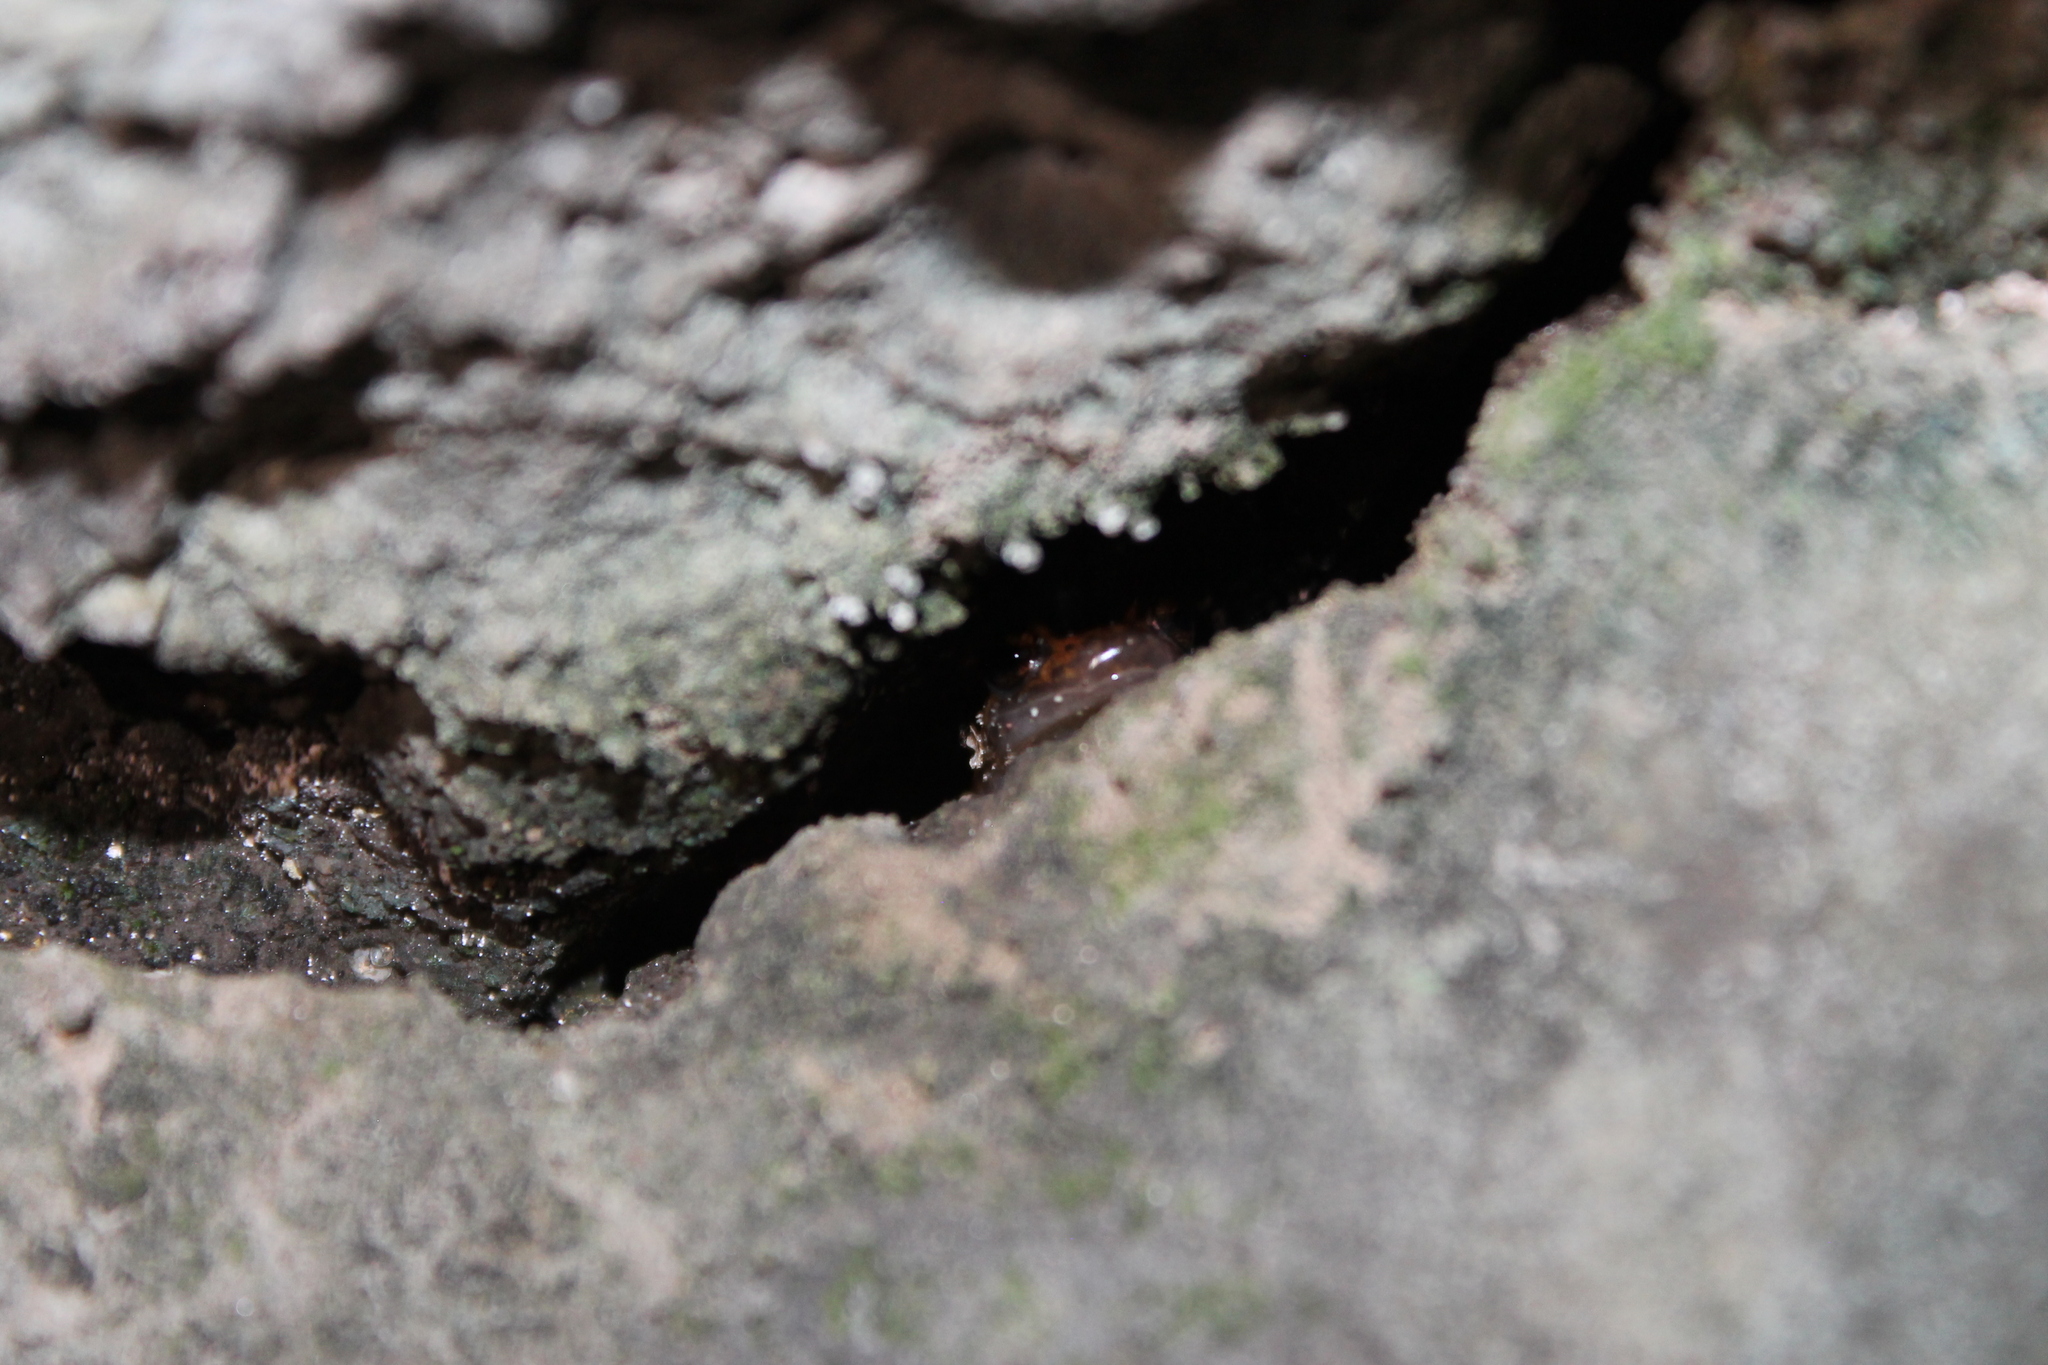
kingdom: Animalia
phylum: Chordata
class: Amphibia
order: Caudata
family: Plethodontidae
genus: Eurycea
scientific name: Eurycea lucifuga
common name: Cave salamander
